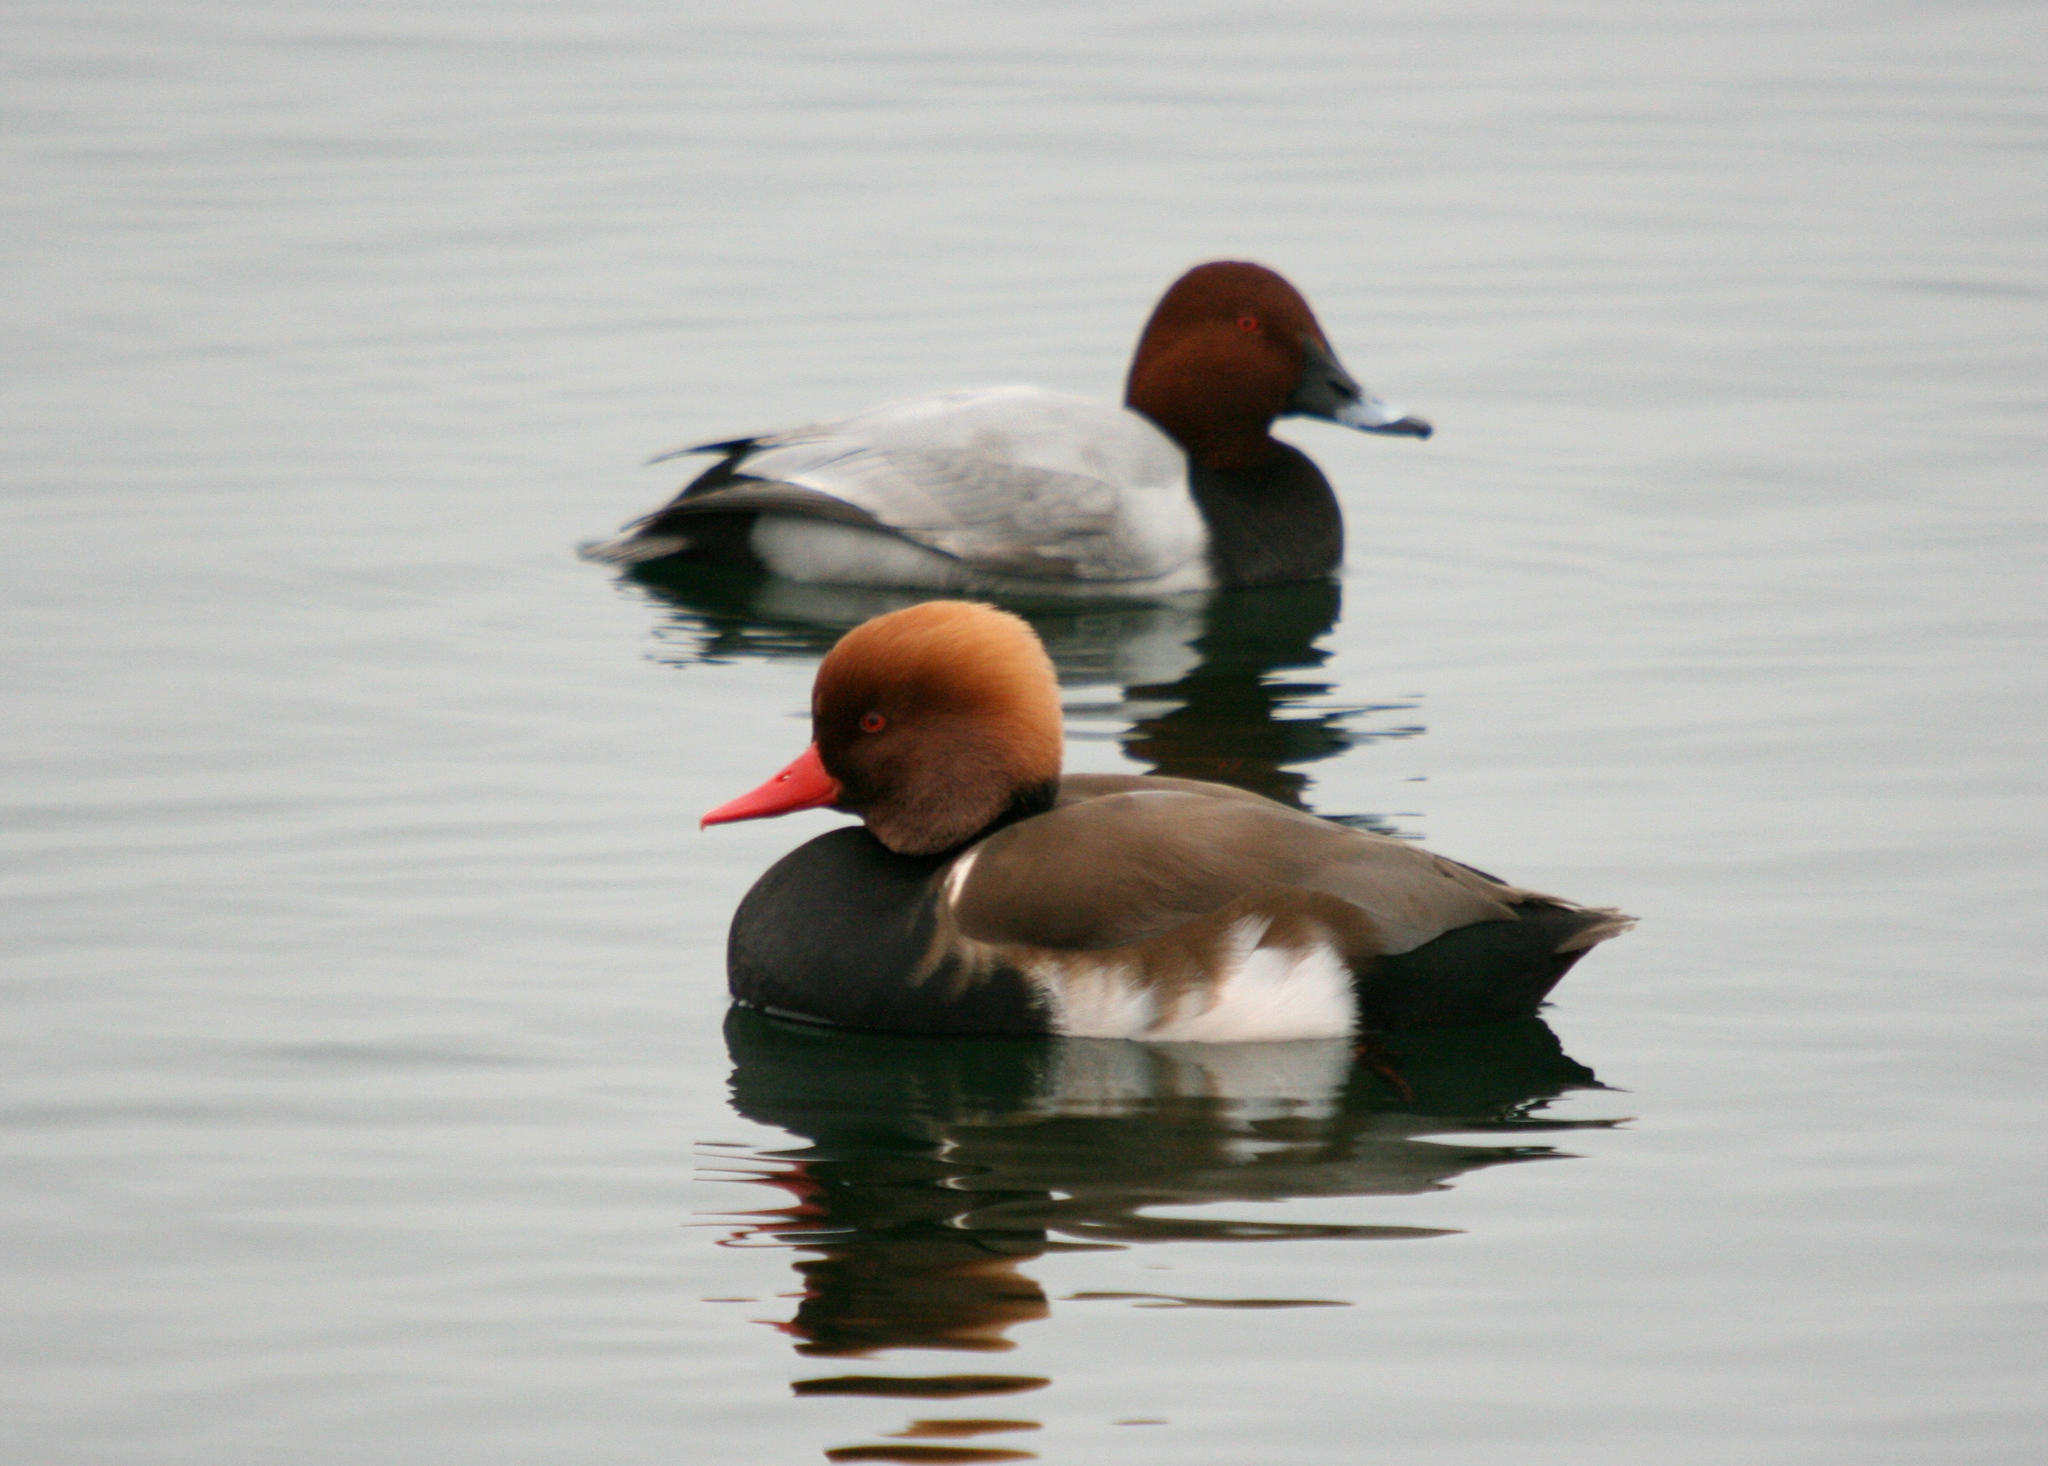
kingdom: Animalia
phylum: Chordata
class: Aves
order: Anseriformes
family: Anatidae
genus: Netta
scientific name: Netta rufina
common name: Red-crested pochard
